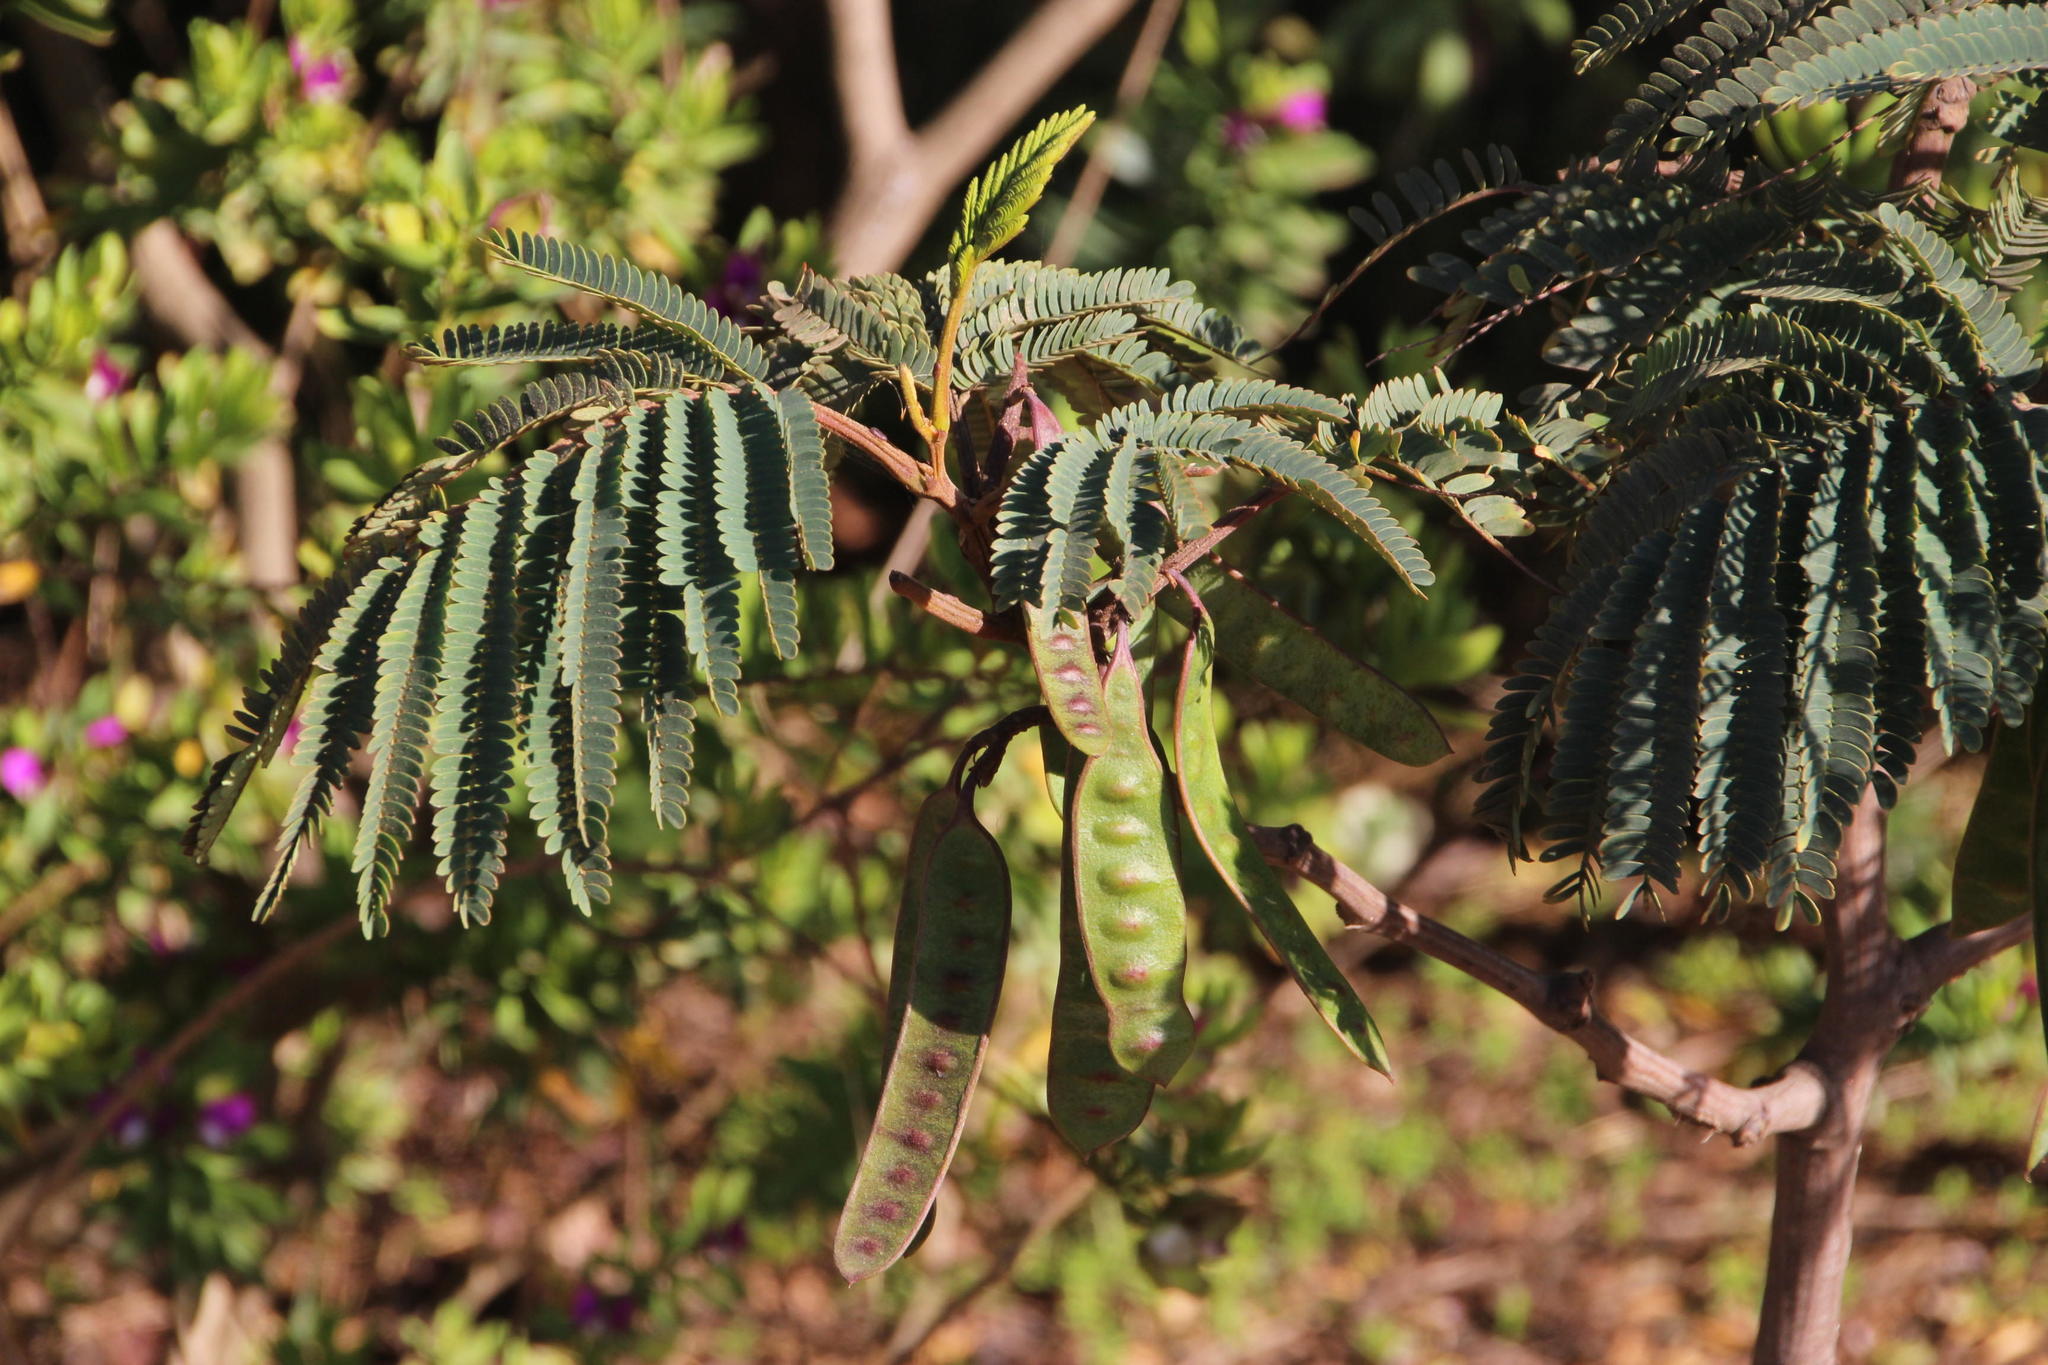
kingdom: Plantae
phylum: Tracheophyta
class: Magnoliopsida
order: Fabales
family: Fabaceae
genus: Paraserianthes
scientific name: Paraserianthes lophantha
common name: Plume albizia
